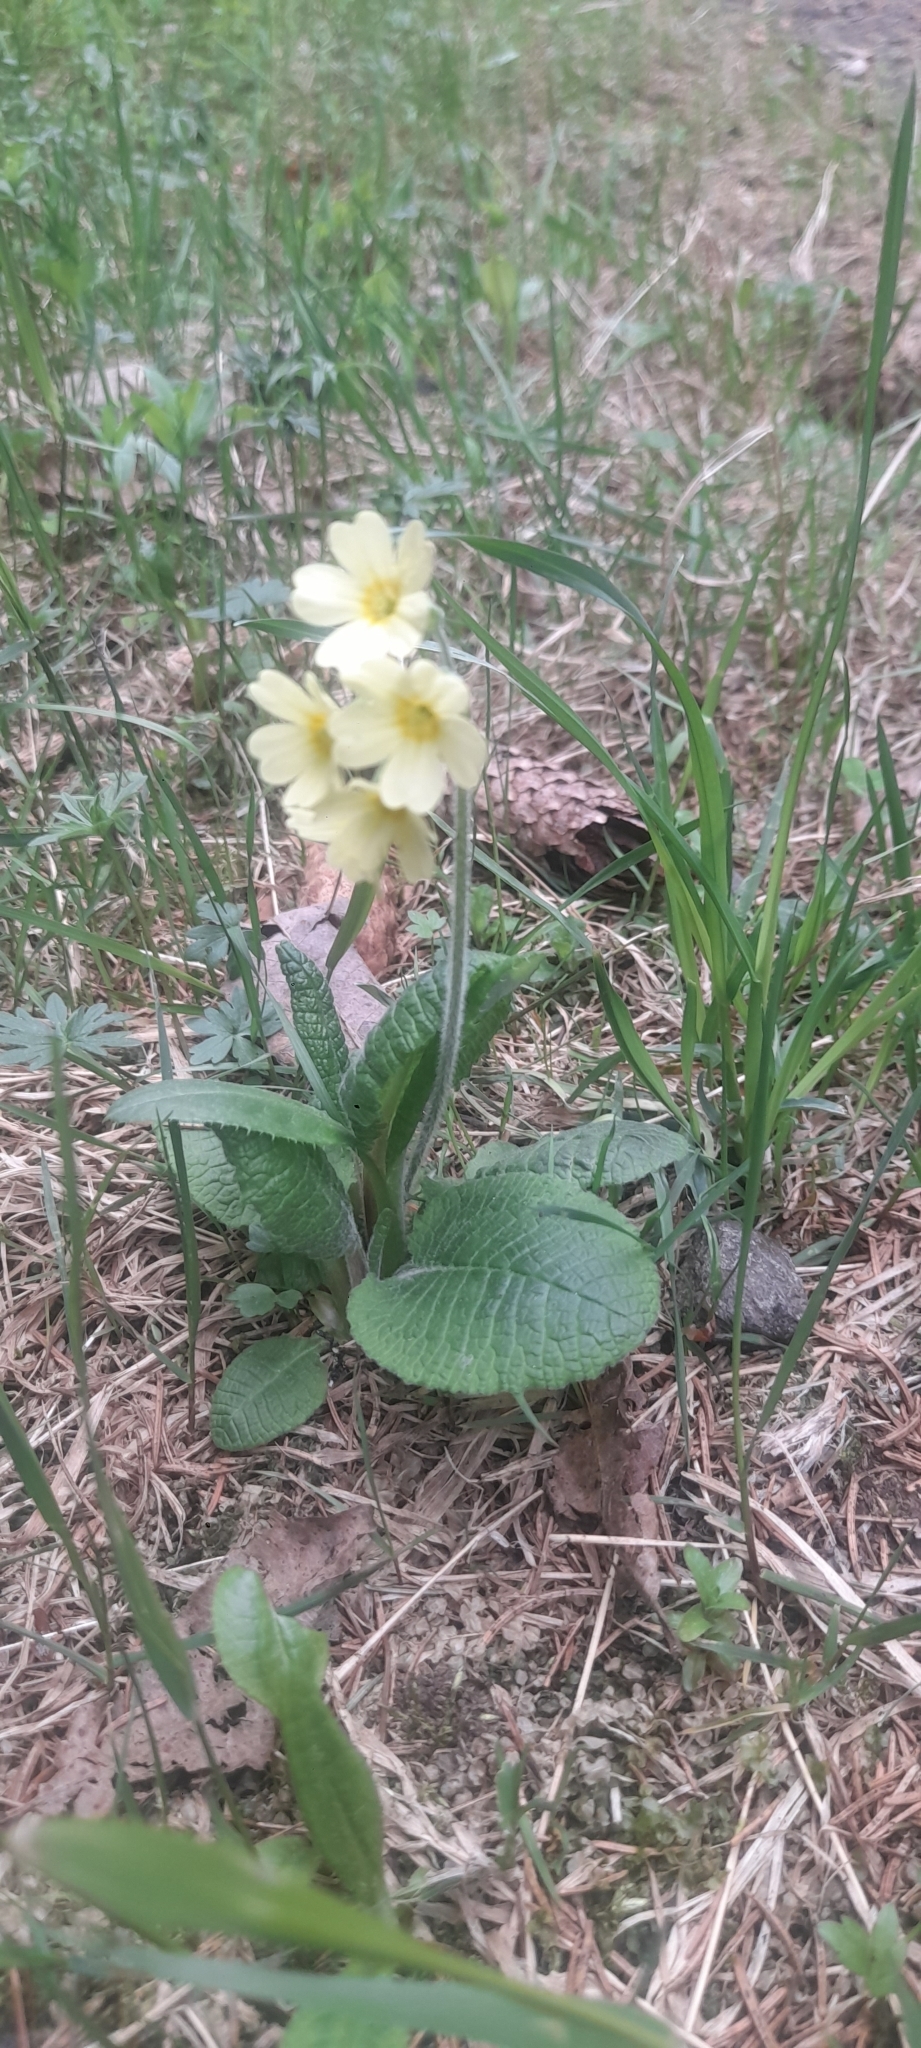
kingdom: Plantae
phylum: Tracheophyta
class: Magnoliopsida
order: Ericales
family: Primulaceae
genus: Primula
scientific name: Primula elatior
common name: Oxlip
